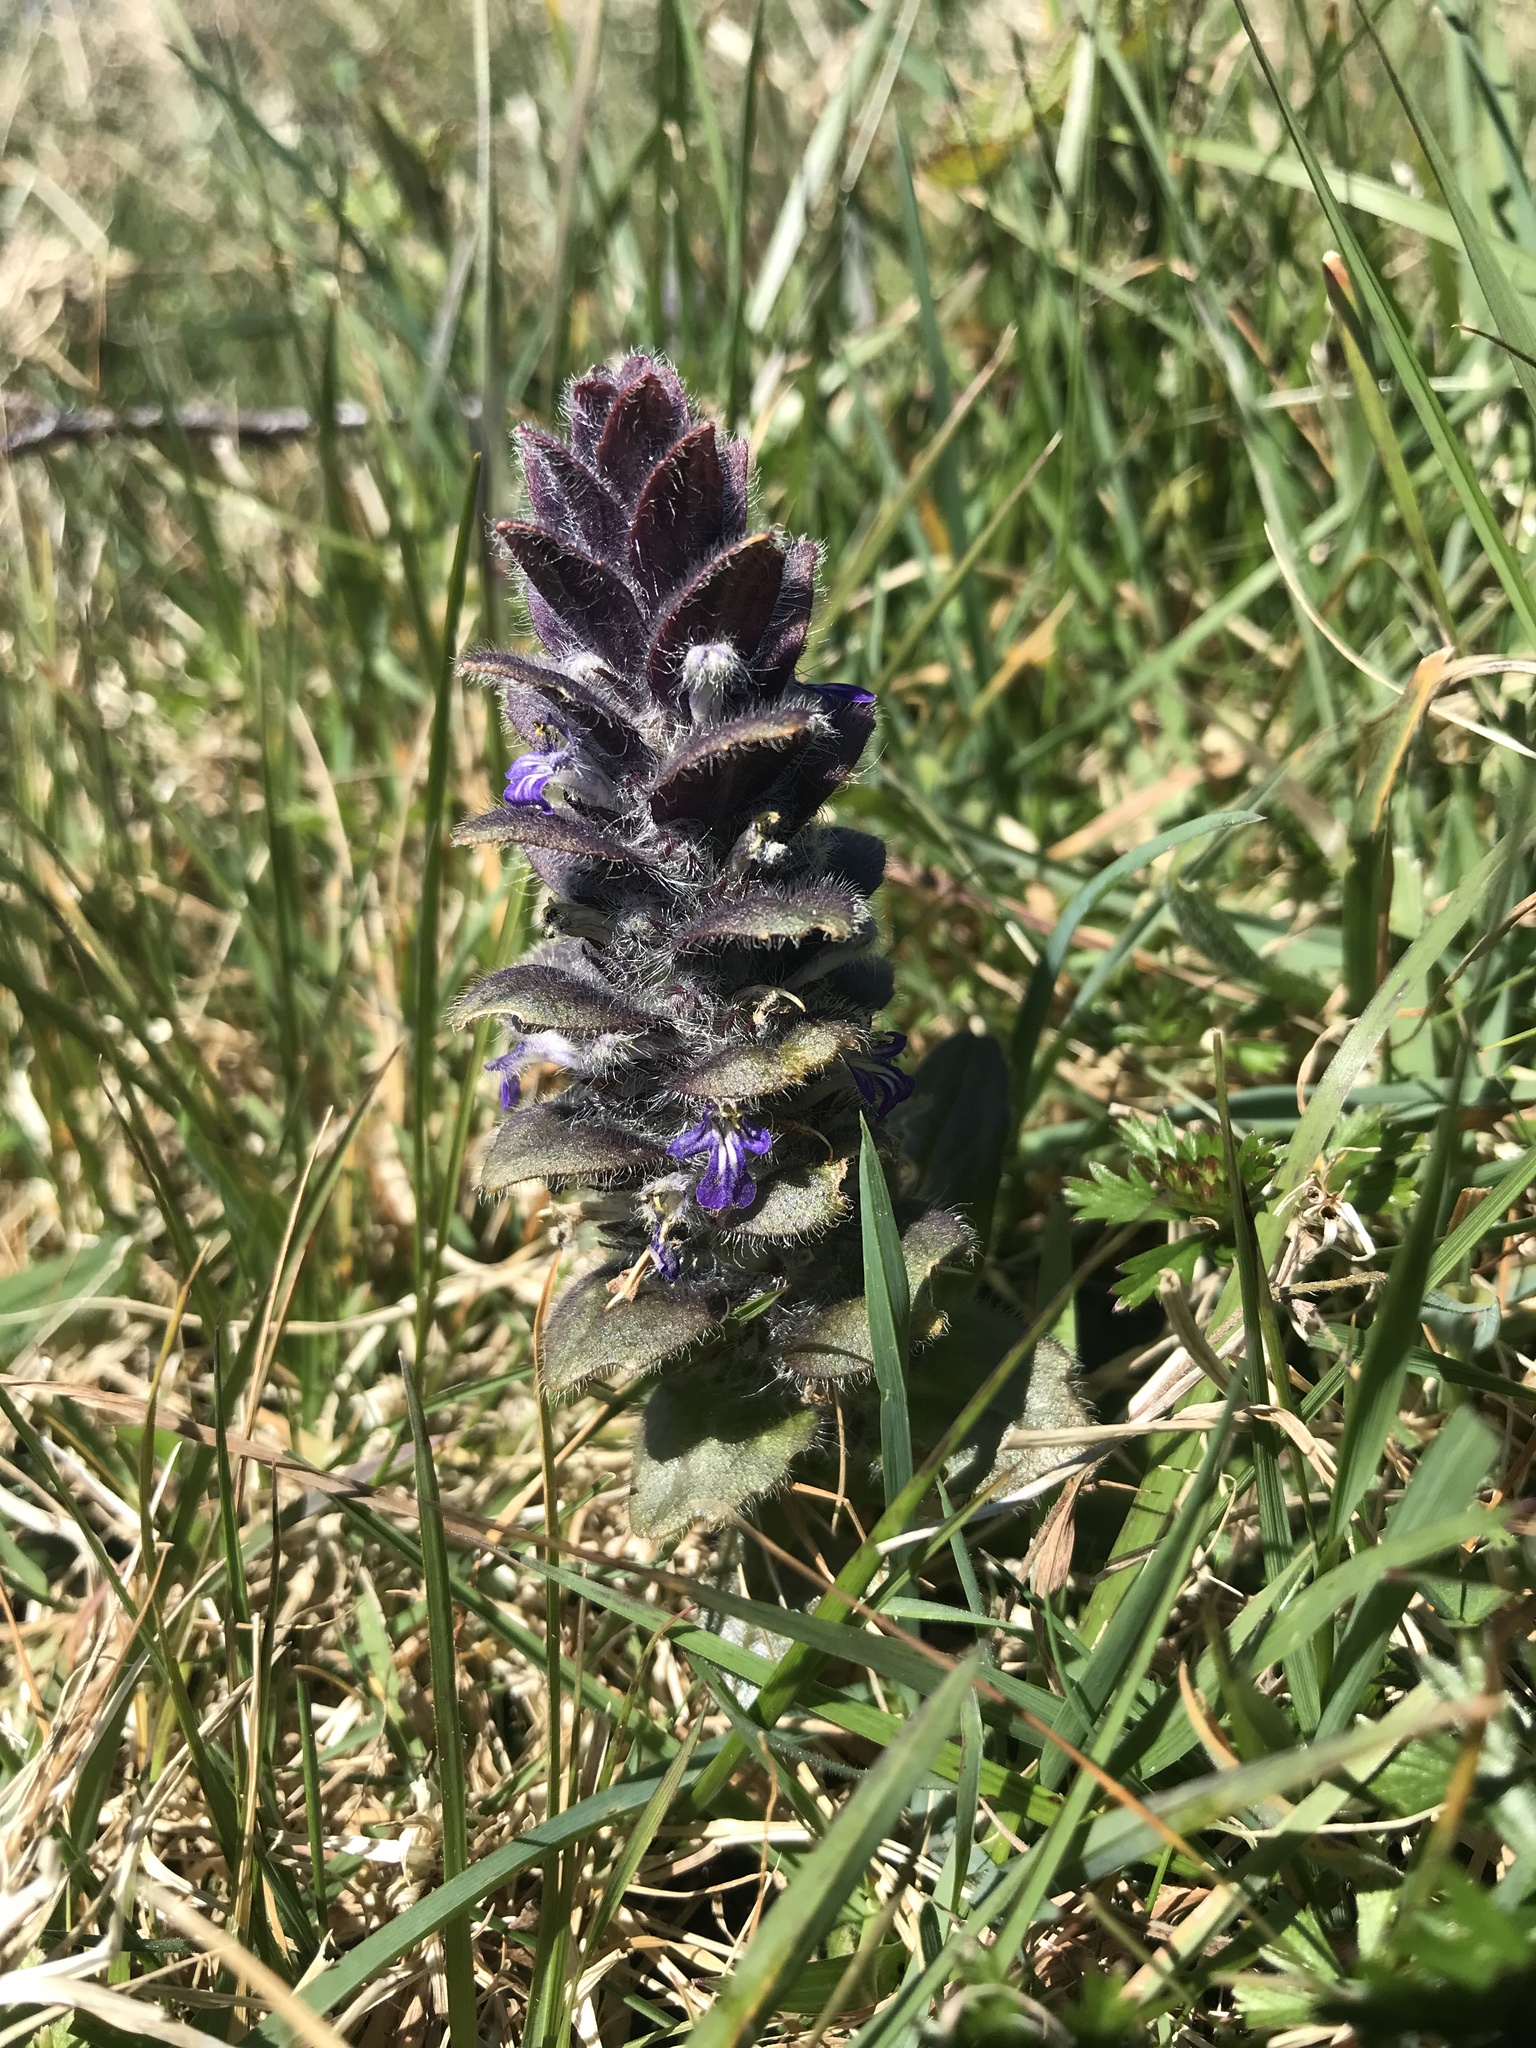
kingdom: Plantae
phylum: Tracheophyta
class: Magnoliopsida
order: Lamiales
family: Lamiaceae
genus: Ajuga
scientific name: Ajuga pyramidalis
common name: Pyramid bugle
